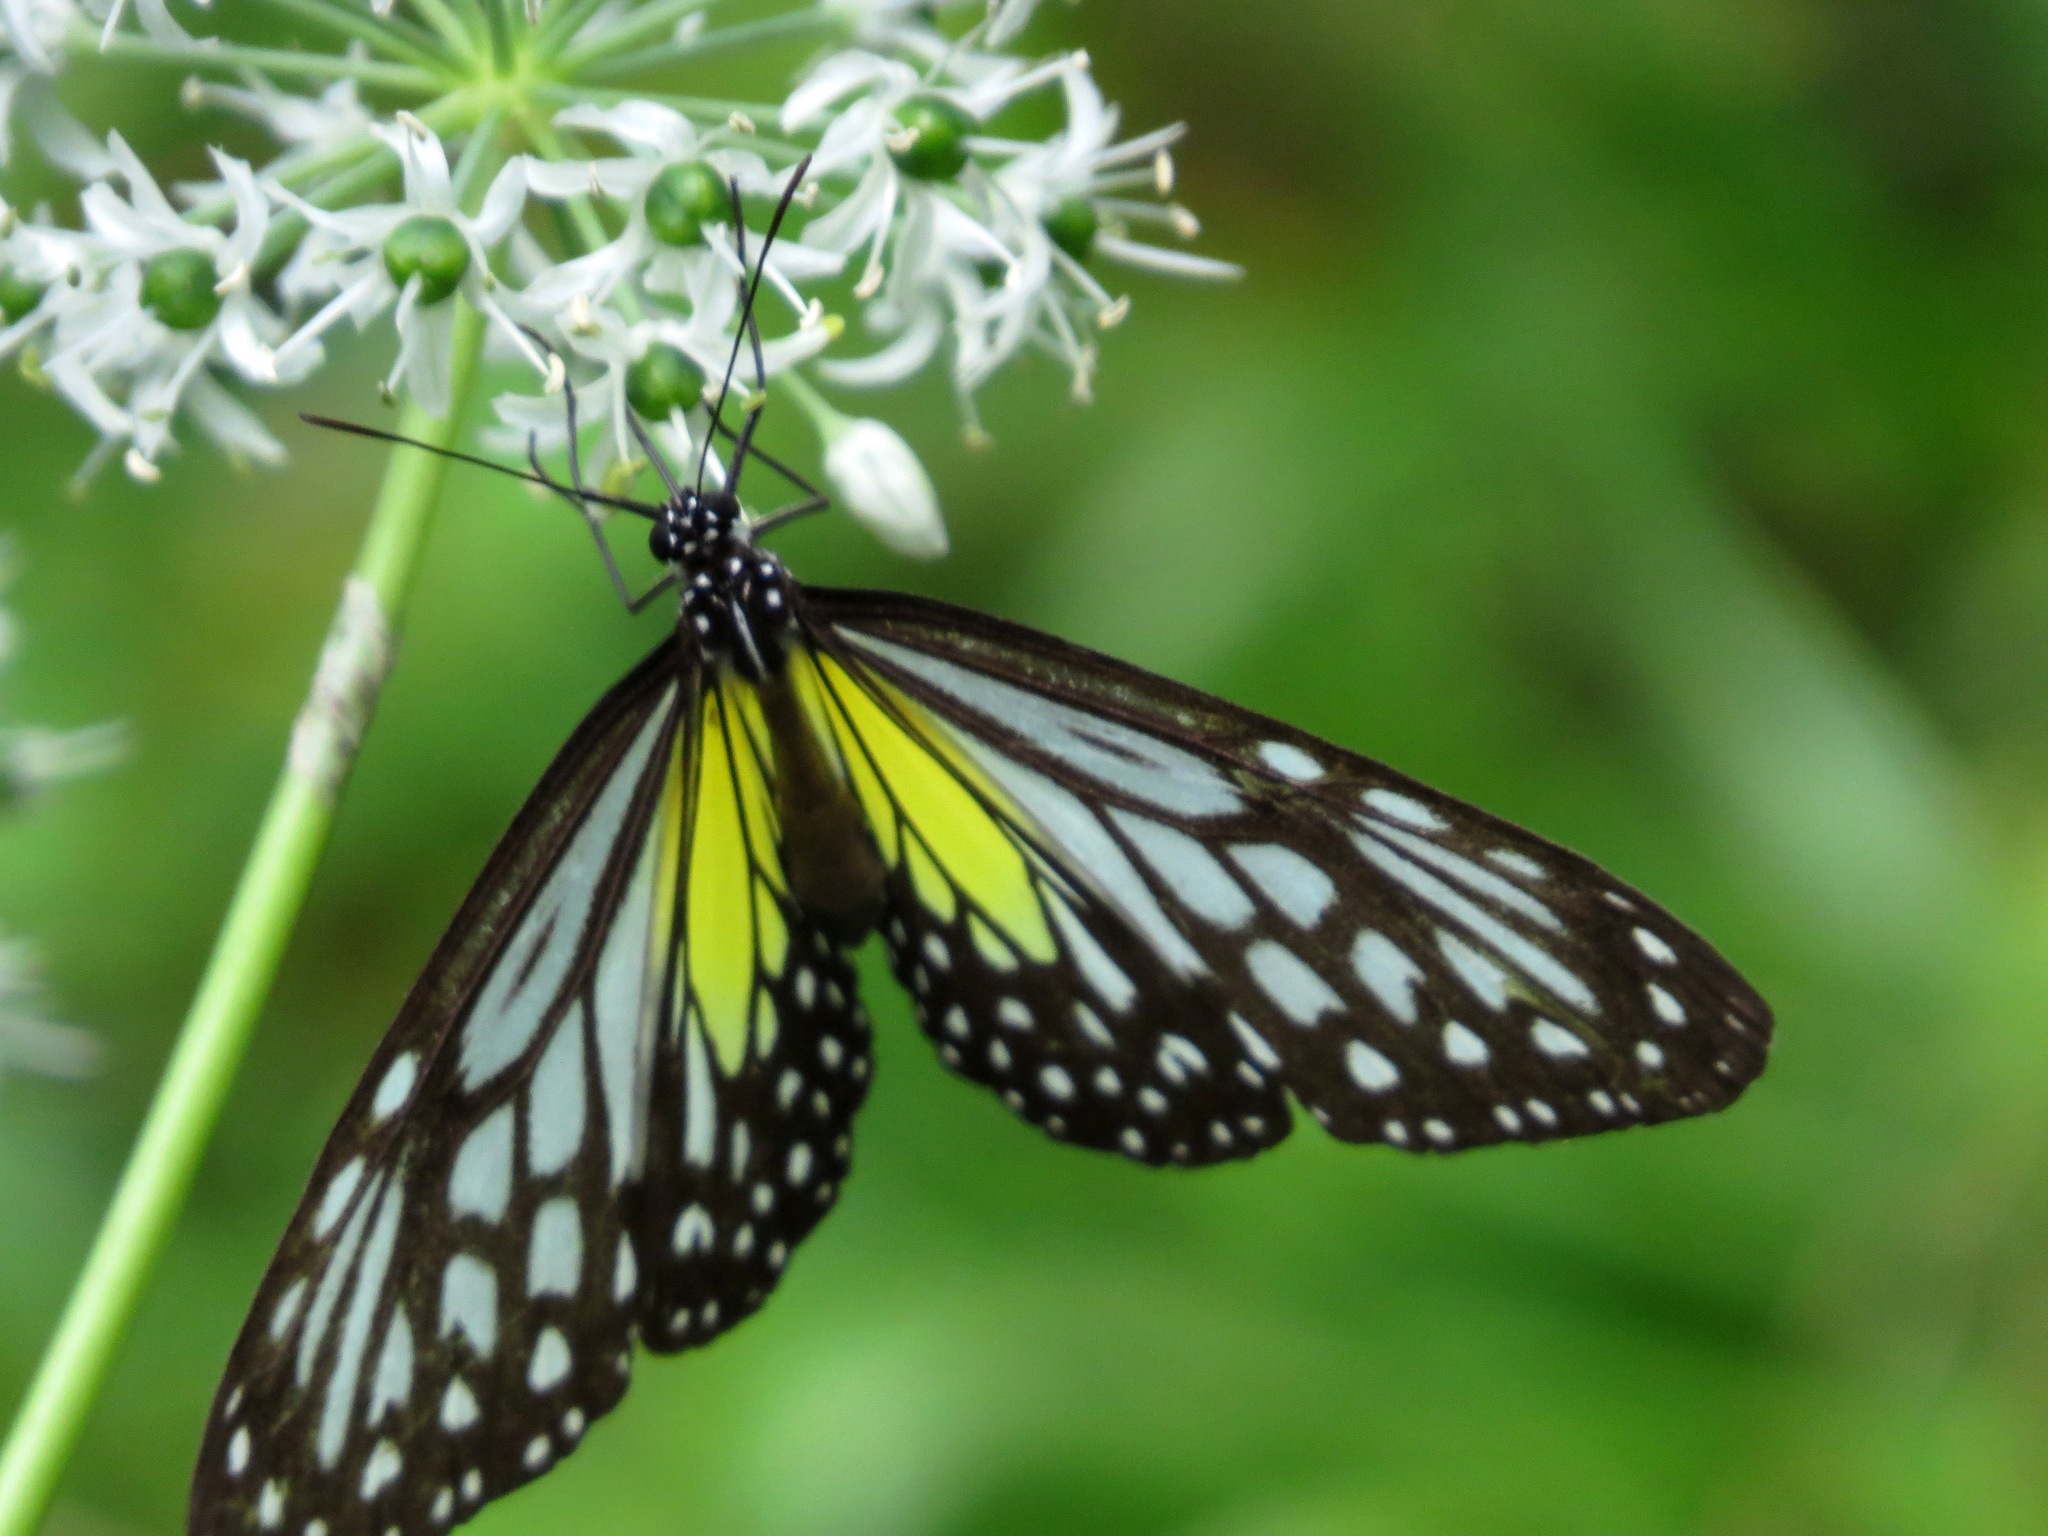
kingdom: Animalia
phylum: Arthropoda
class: Insecta
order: Lepidoptera
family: Nymphalidae
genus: Parantica
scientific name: Parantica aspasia
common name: Yellow glassy tiger
